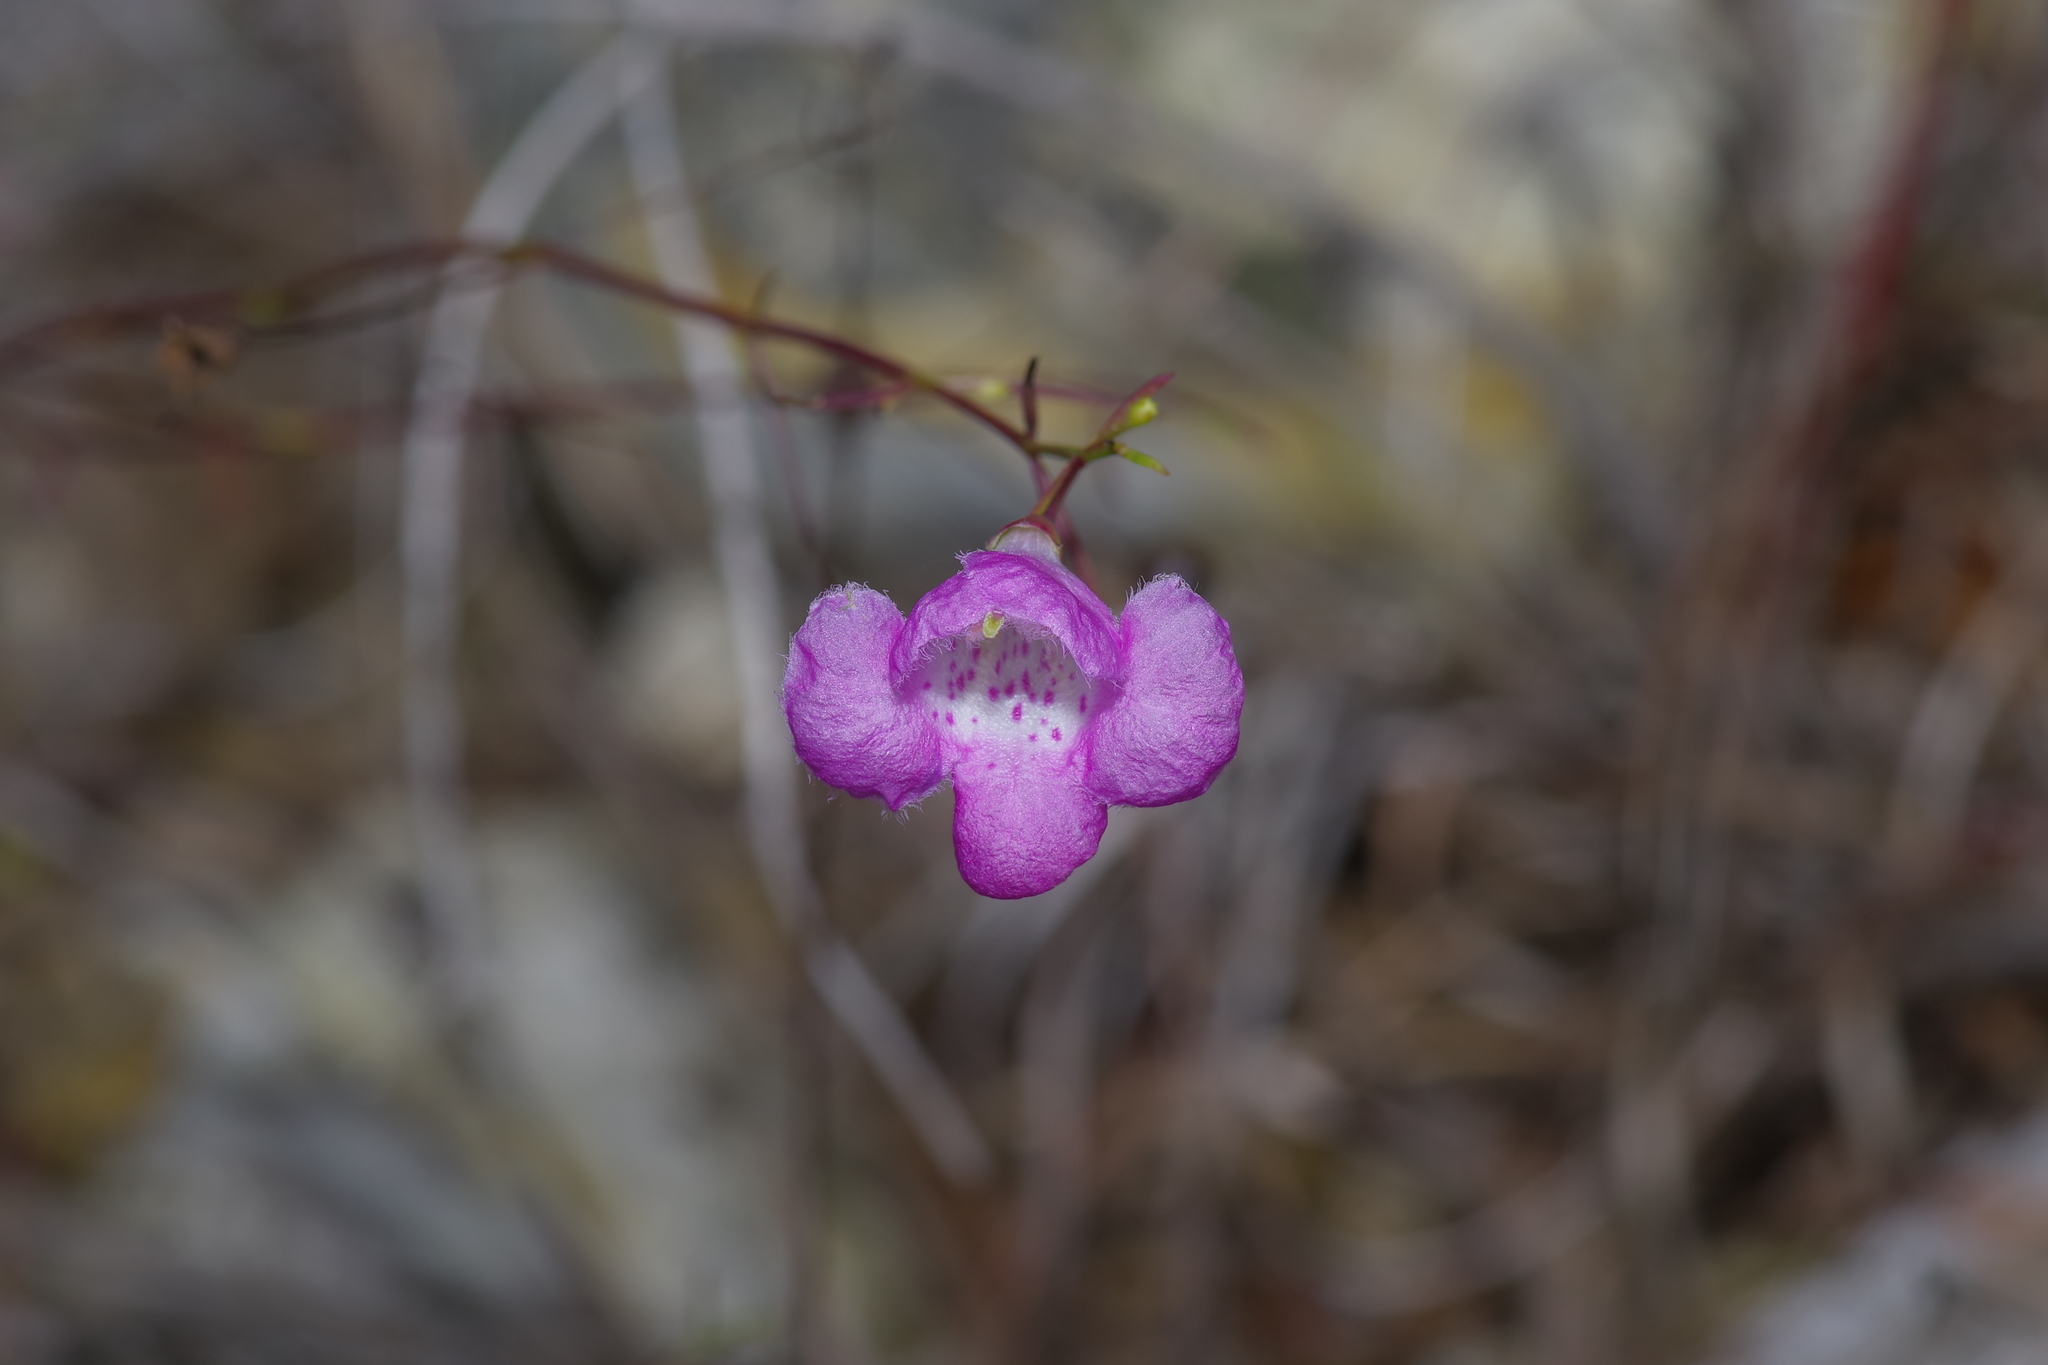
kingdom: Plantae
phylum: Tracheophyta
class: Magnoliopsida
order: Lamiales
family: Orobanchaceae
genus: Agalinis
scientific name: Agalinis edwardsiana
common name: Plateau-gerardia
